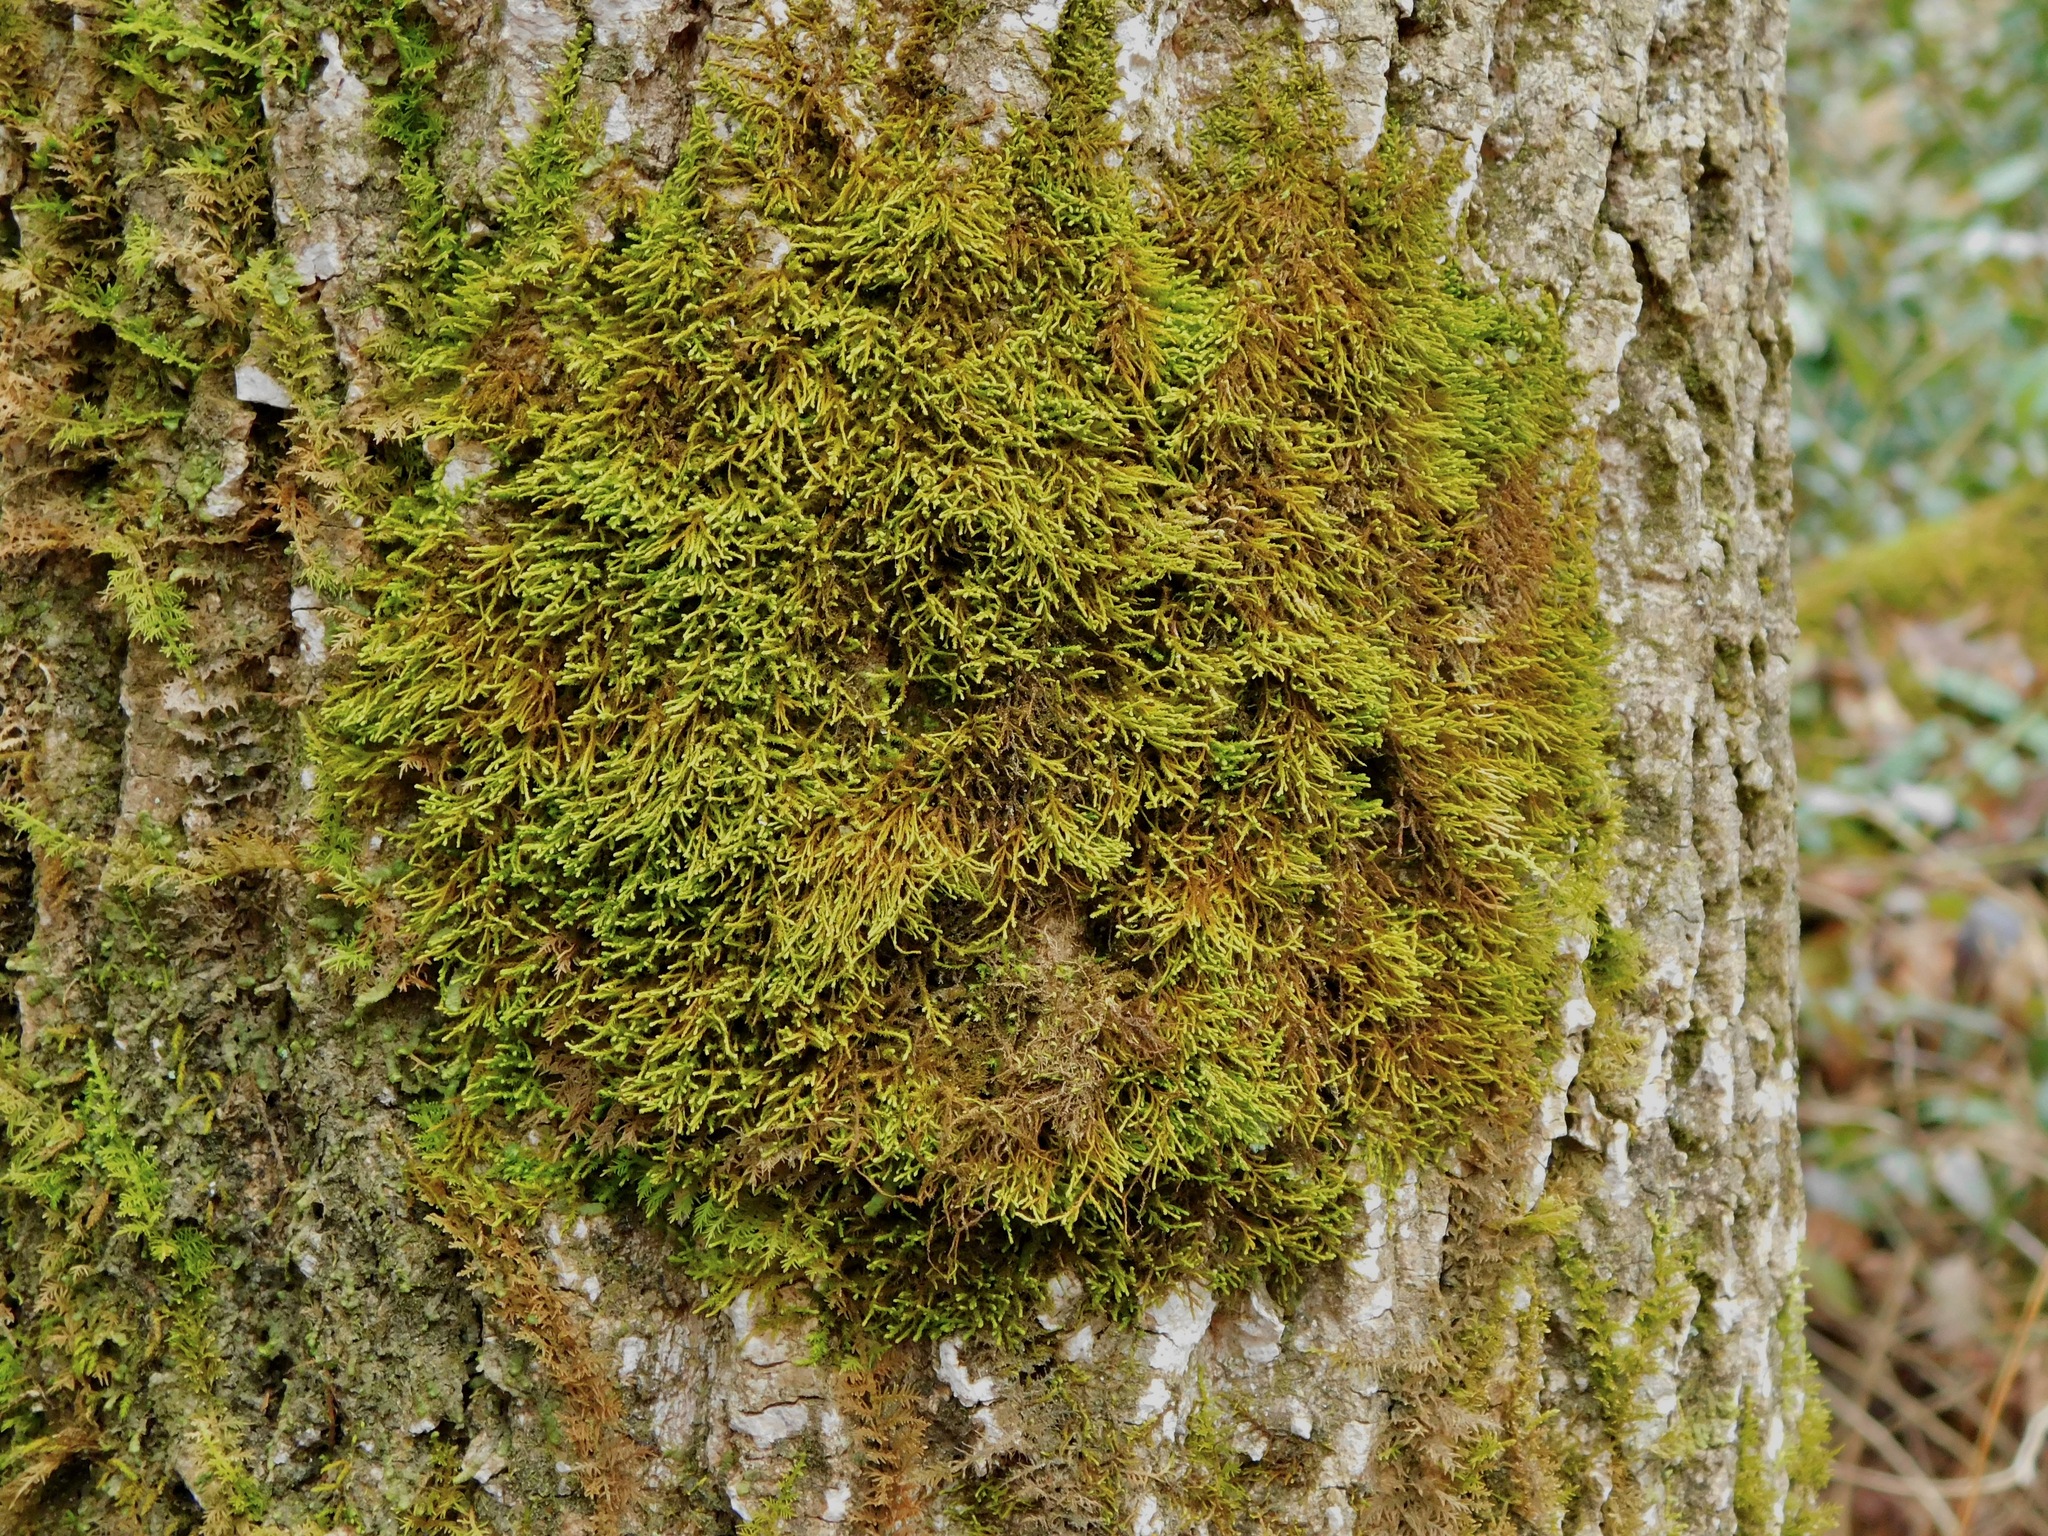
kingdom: Plantae
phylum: Bryophyta
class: Bryopsida
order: Hypnales
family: Amblystegiaceae
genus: Pseudoamblystegium
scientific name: Pseudoamblystegium subtile
